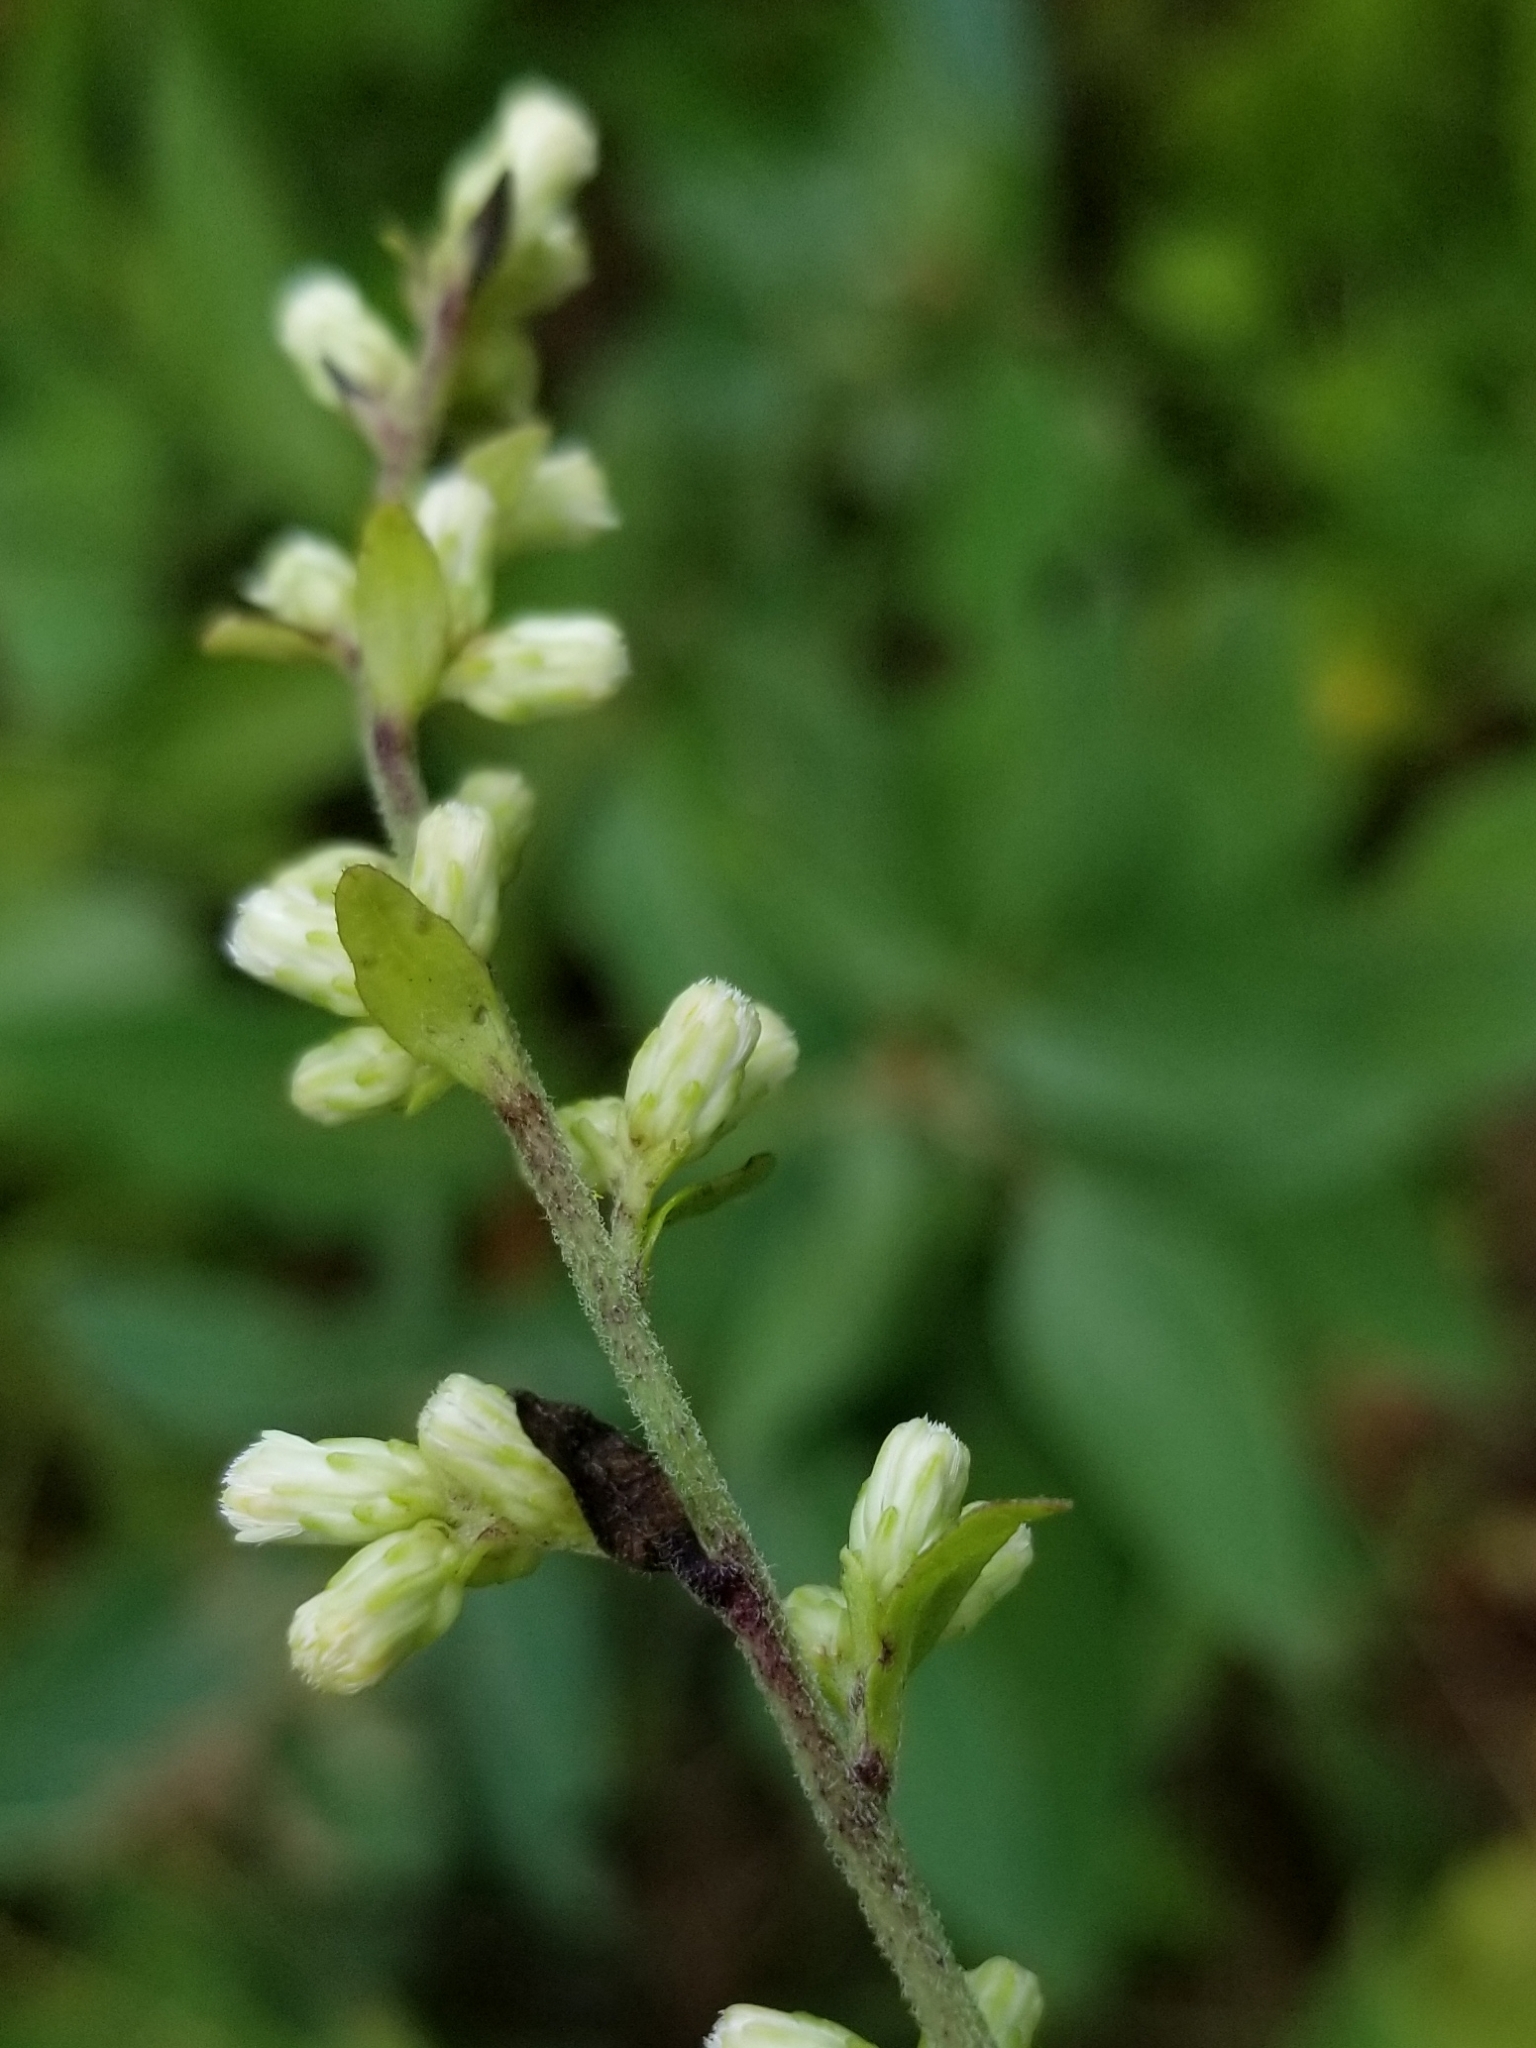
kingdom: Plantae
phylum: Tracheophyta
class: Magnoliopsida
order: Asterales
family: Asteraceae
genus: Solidago
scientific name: Solidago bicolor
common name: Silverrod
